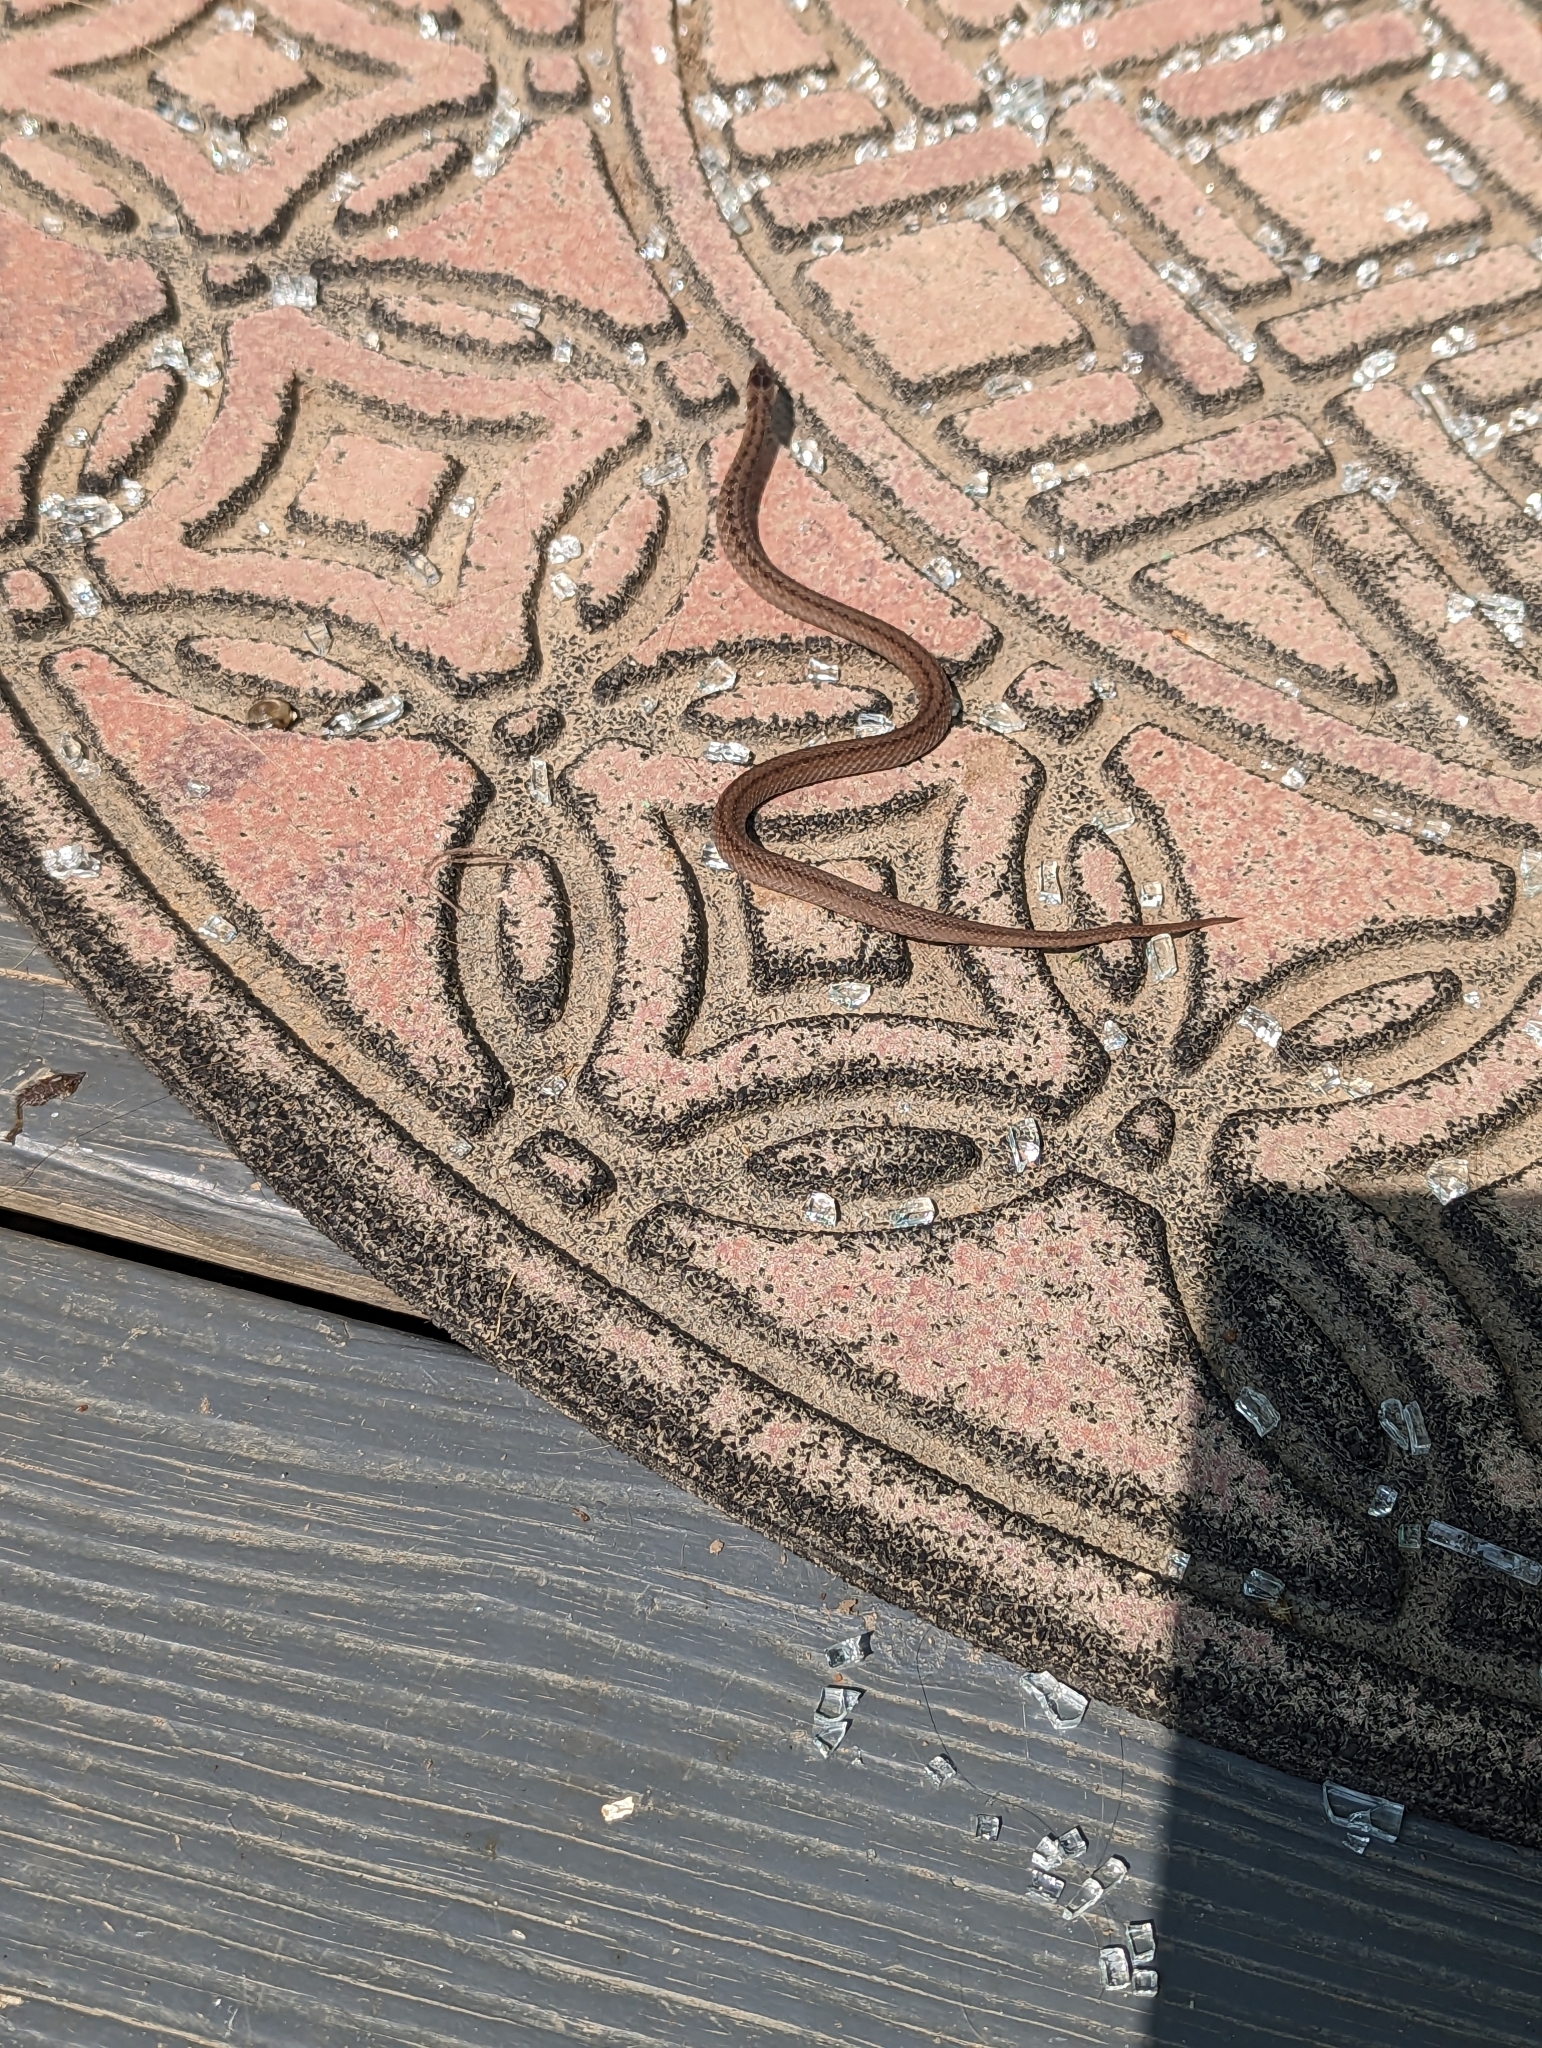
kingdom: Animalia
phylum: Chordata
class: Squamata
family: Colubridae
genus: Storeria
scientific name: Storeria dekayi
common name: (dekay’s) brown snake
